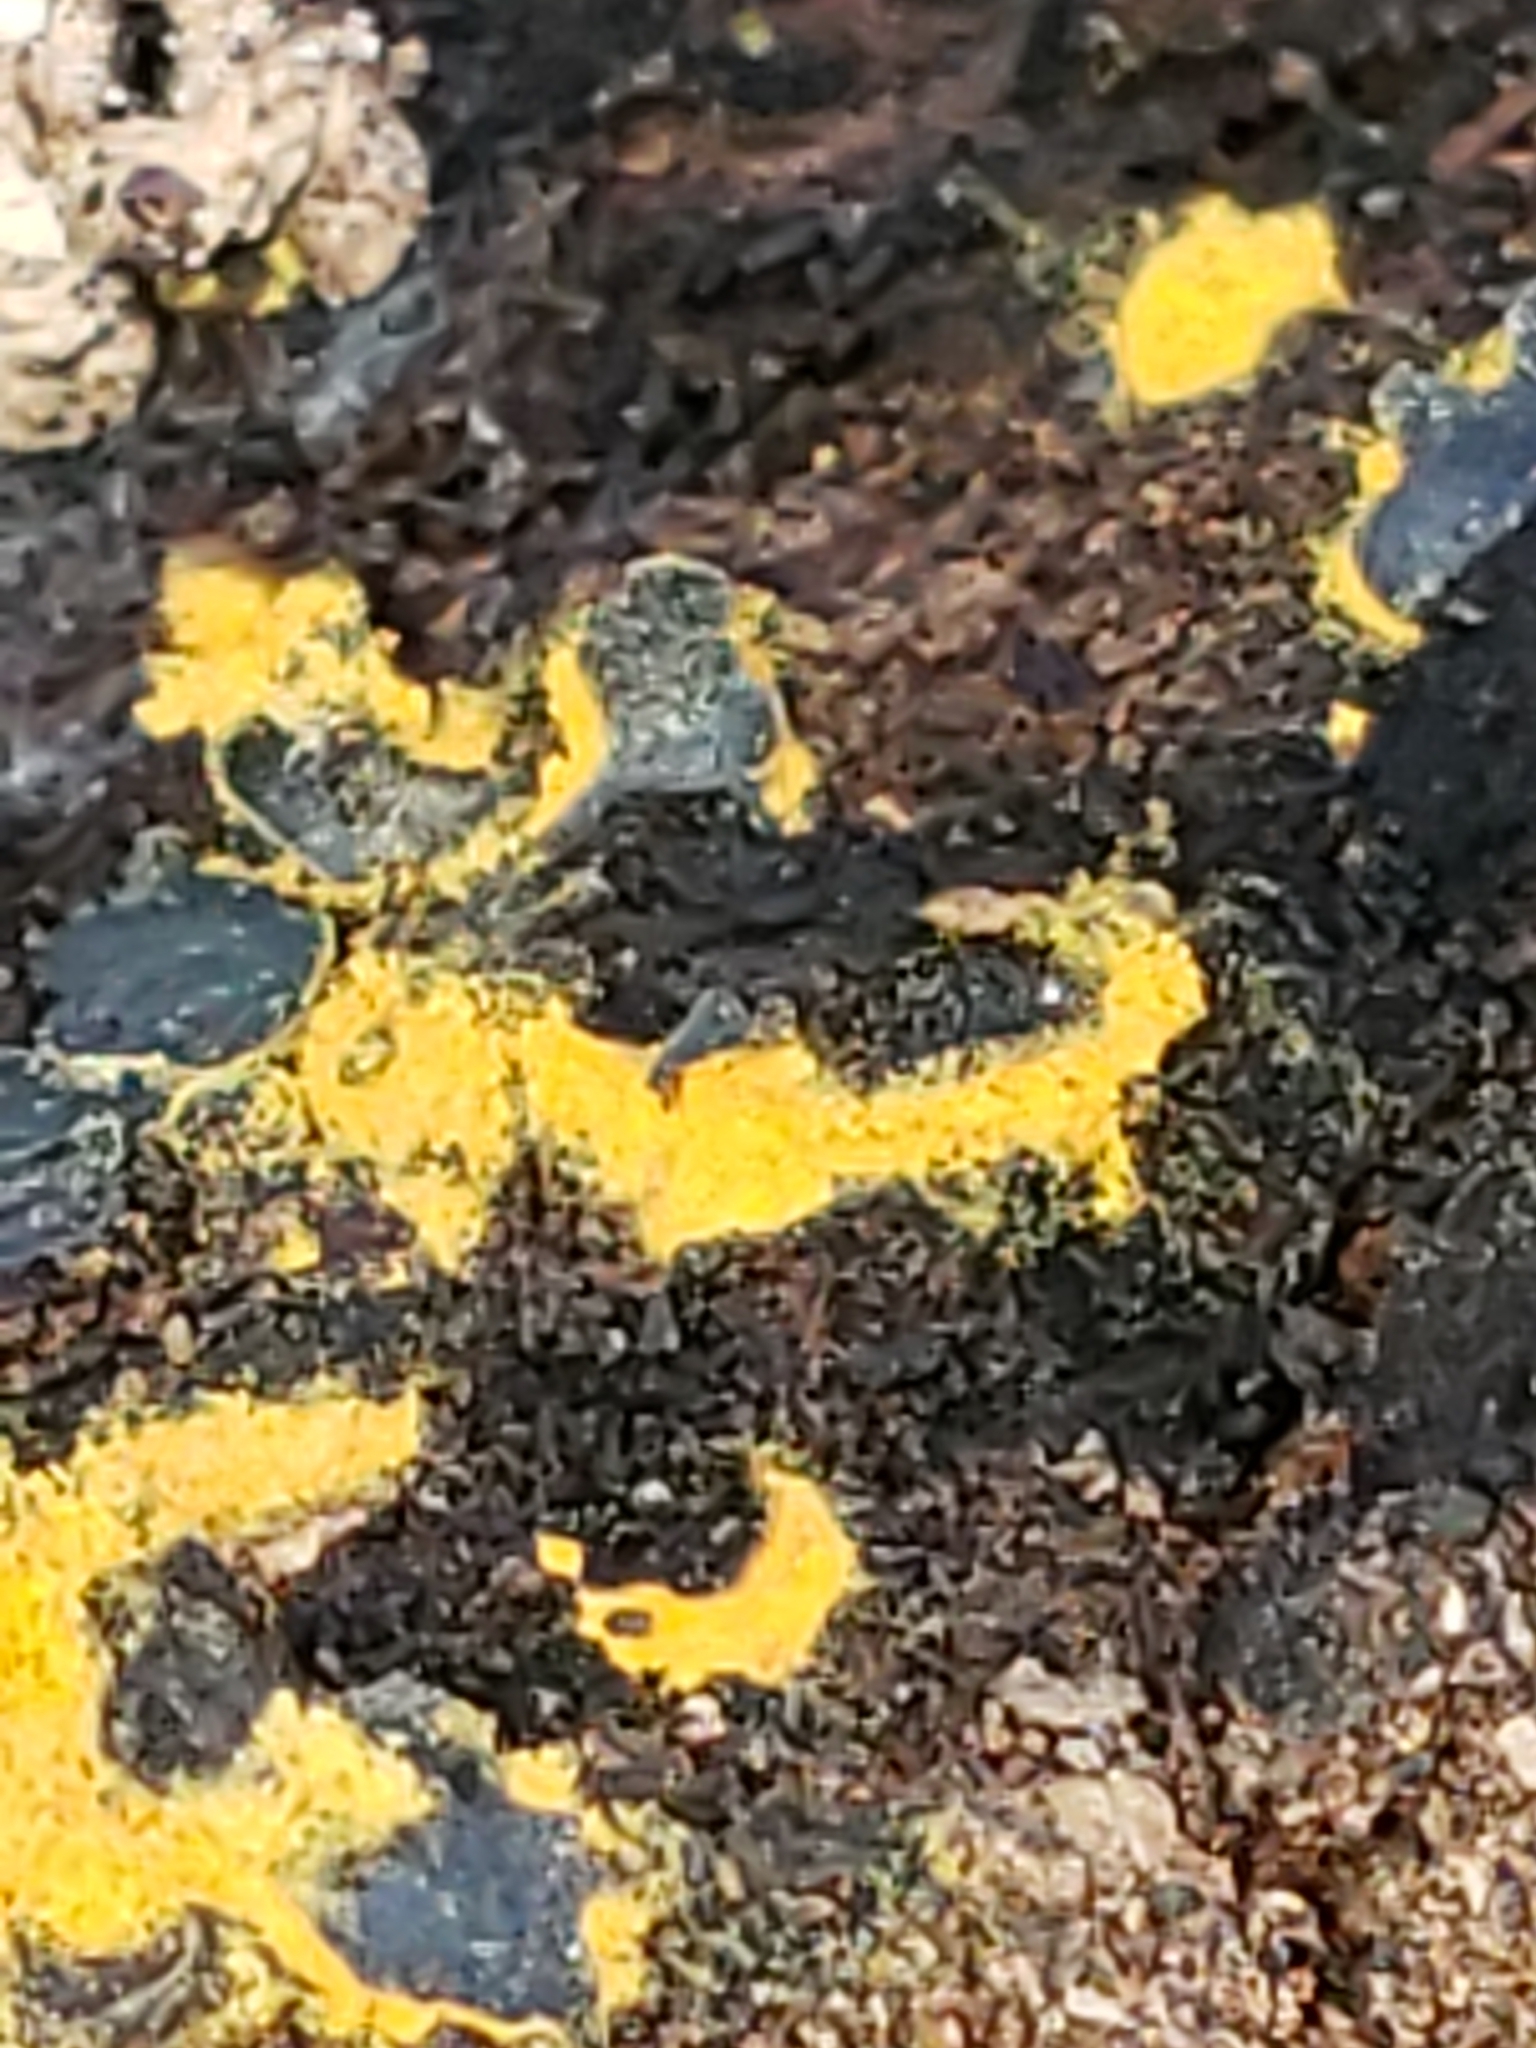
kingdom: Protozoa
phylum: Mycetozoa
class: Myxomycetes
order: Trichiales
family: Trichiaceae
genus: Perichaena
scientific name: Perichaena depressa
